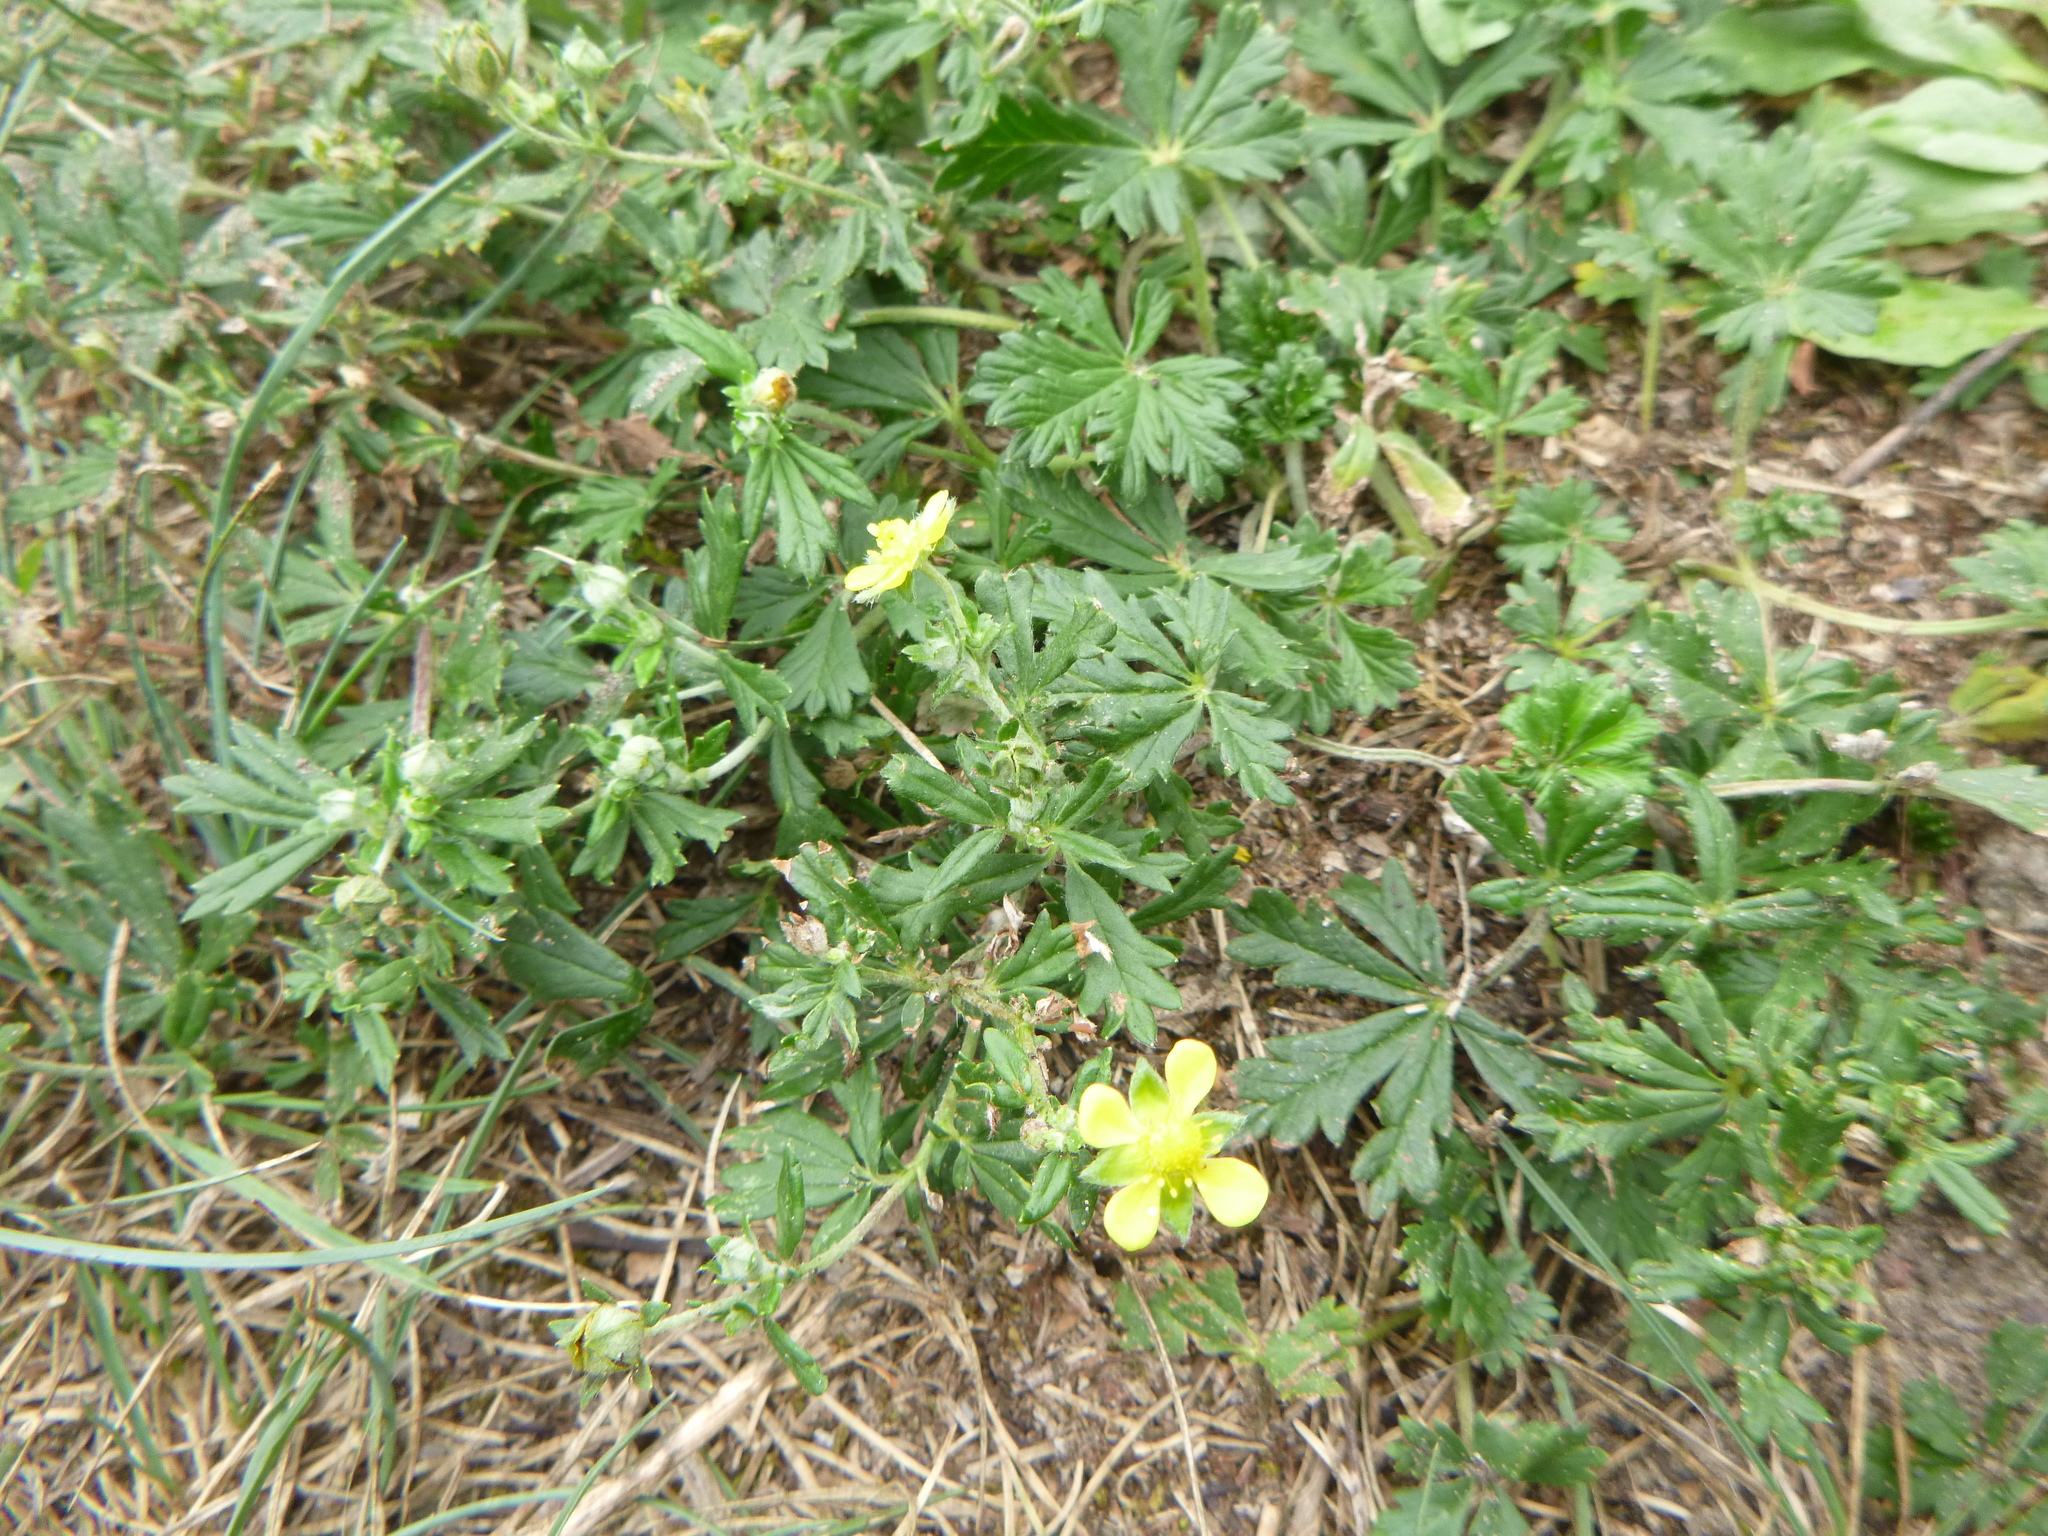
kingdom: Plantae
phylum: Tracheophyta
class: Magnoliopsida
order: Rosales
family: Rosaceae
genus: Potentilla
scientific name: Potentilla argentea
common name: Hoary cinquefoil
